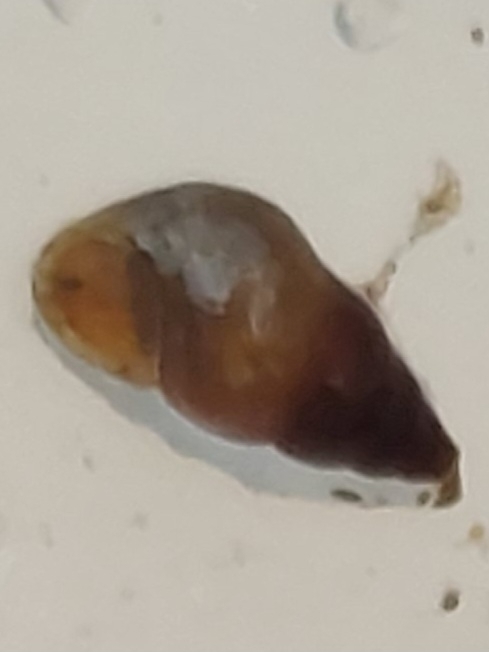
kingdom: Animalia
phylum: Mollusca
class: Gastropoda
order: Littorinimorpha
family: Tateidae
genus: Potamopyrgus
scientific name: Potamopyrgus antipodarum
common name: Jenkins' spire snail
